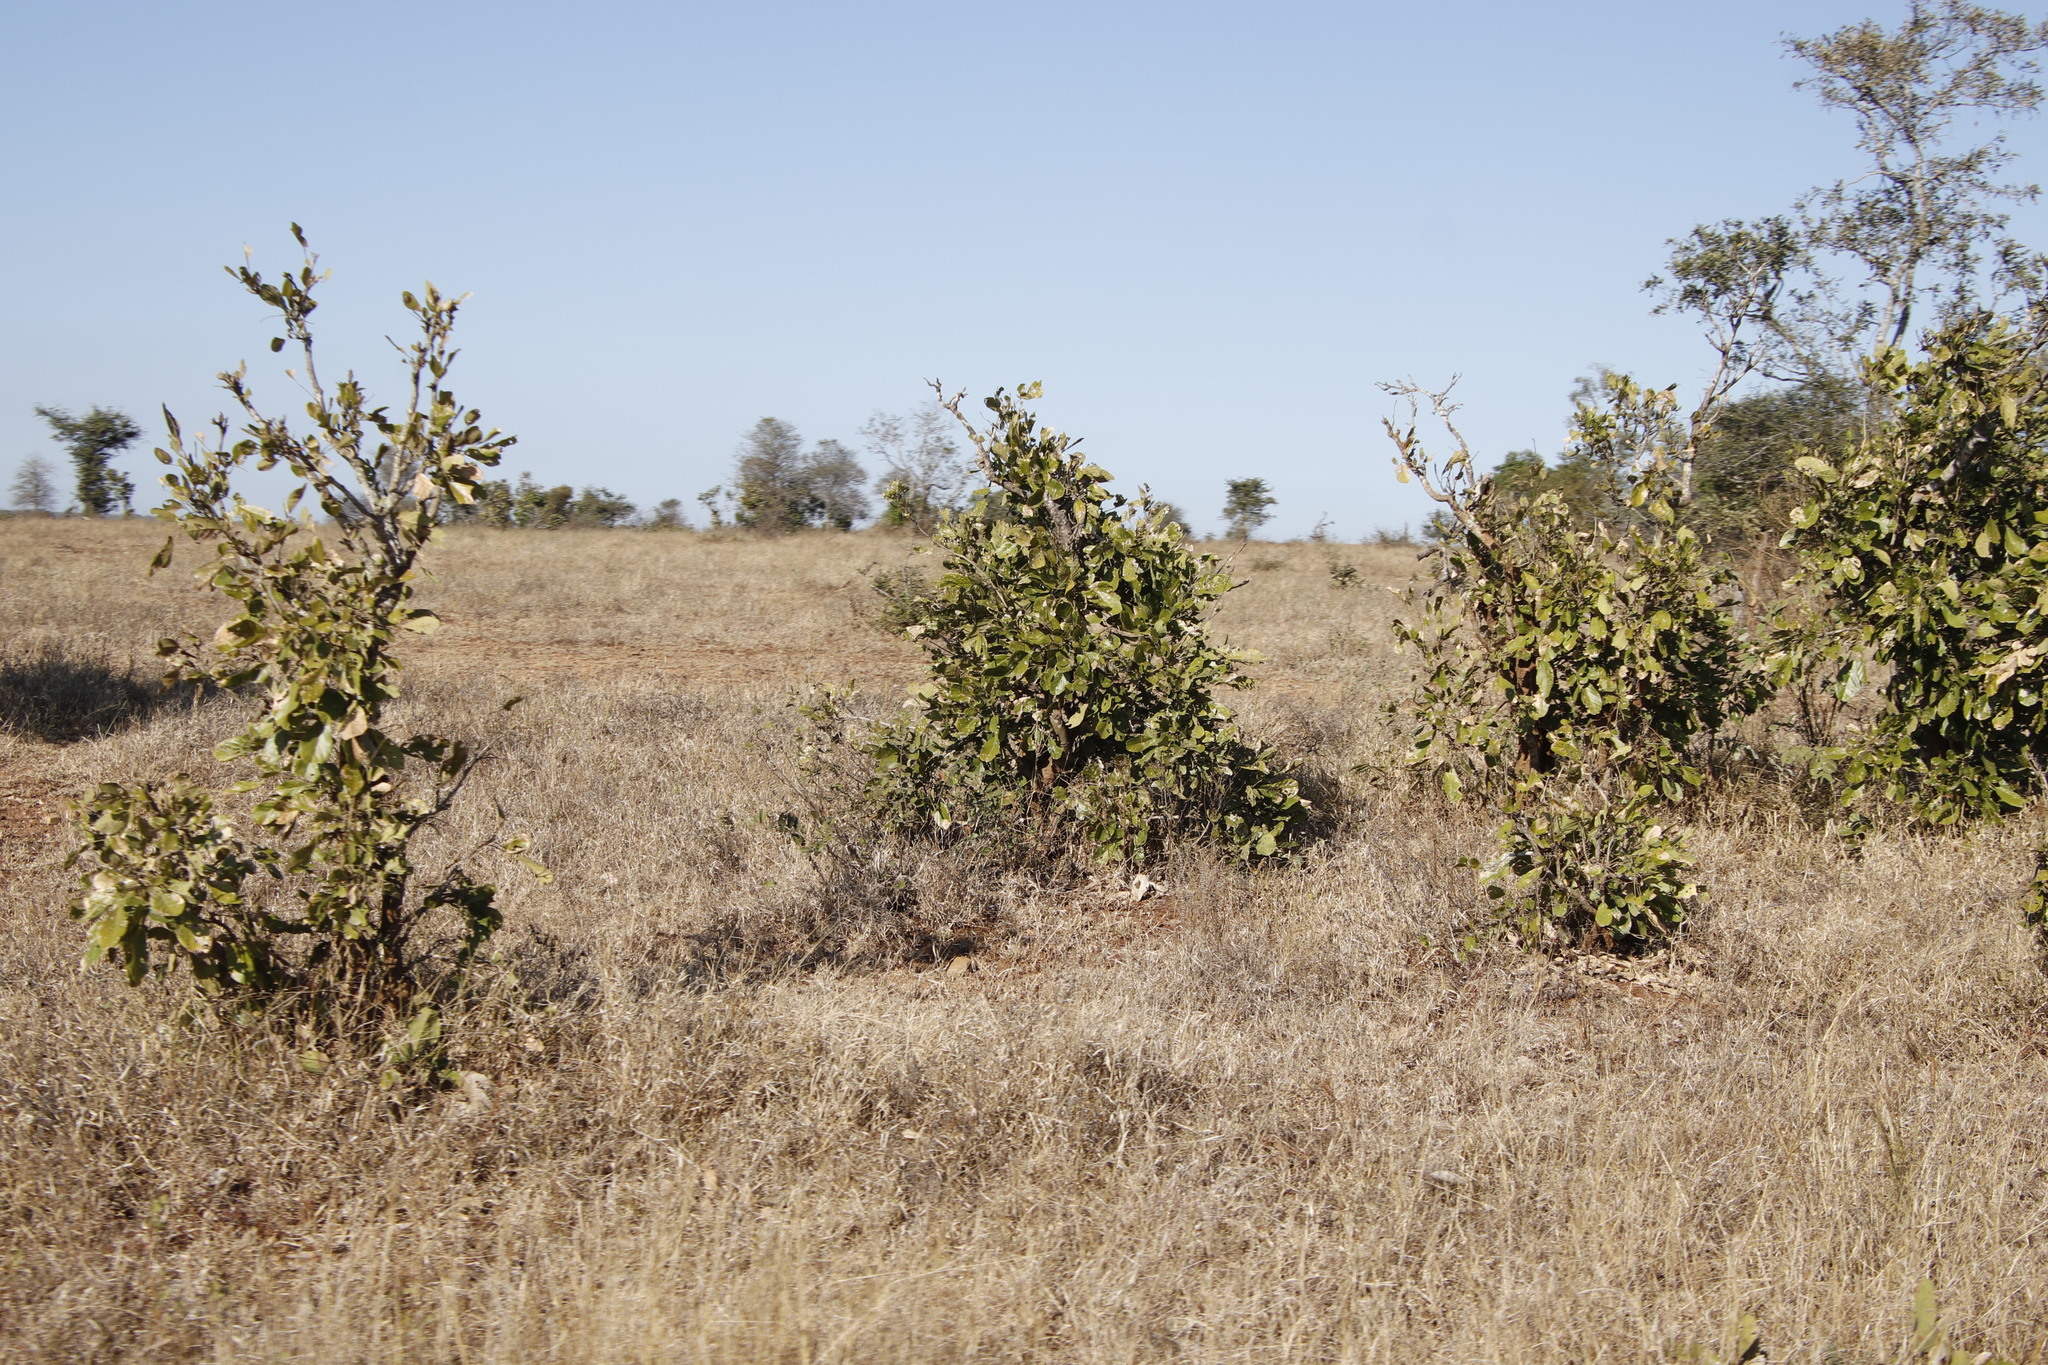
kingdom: Plantae
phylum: Tracheophyta
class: Magnoliopsida
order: Fabales
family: Fabaceae
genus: Philenoptera
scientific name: Philenoptera violacea
